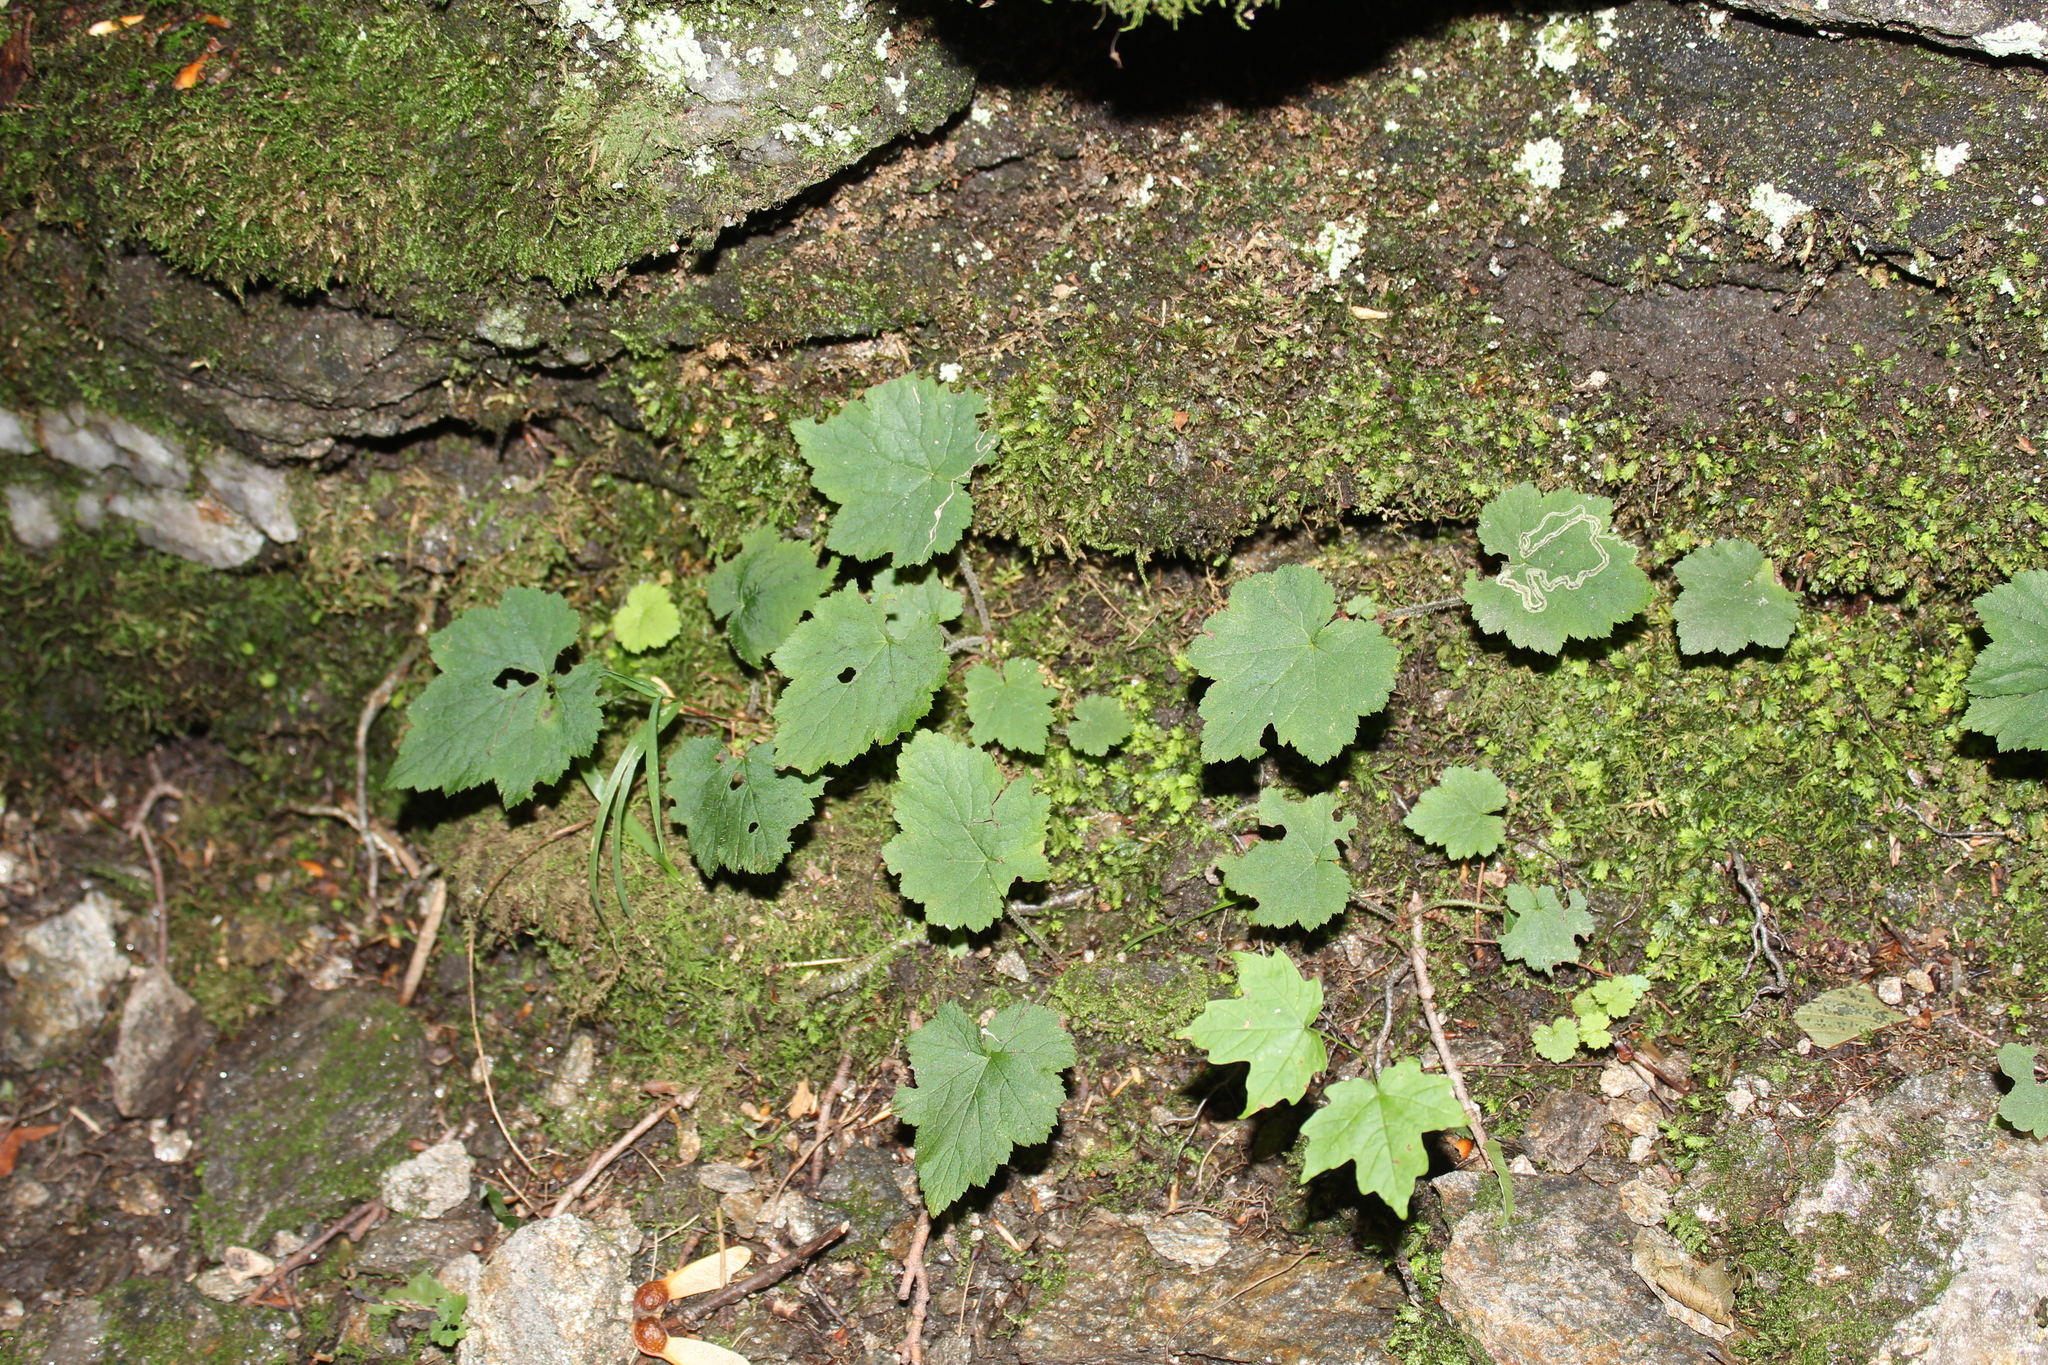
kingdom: Plantae
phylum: Tracheophyta
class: Magnoliopsida
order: Saxifragales
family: Saxifragaceae
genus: Tiarella
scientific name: Tiarella stolonifera
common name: Stoloniferous foamflower
